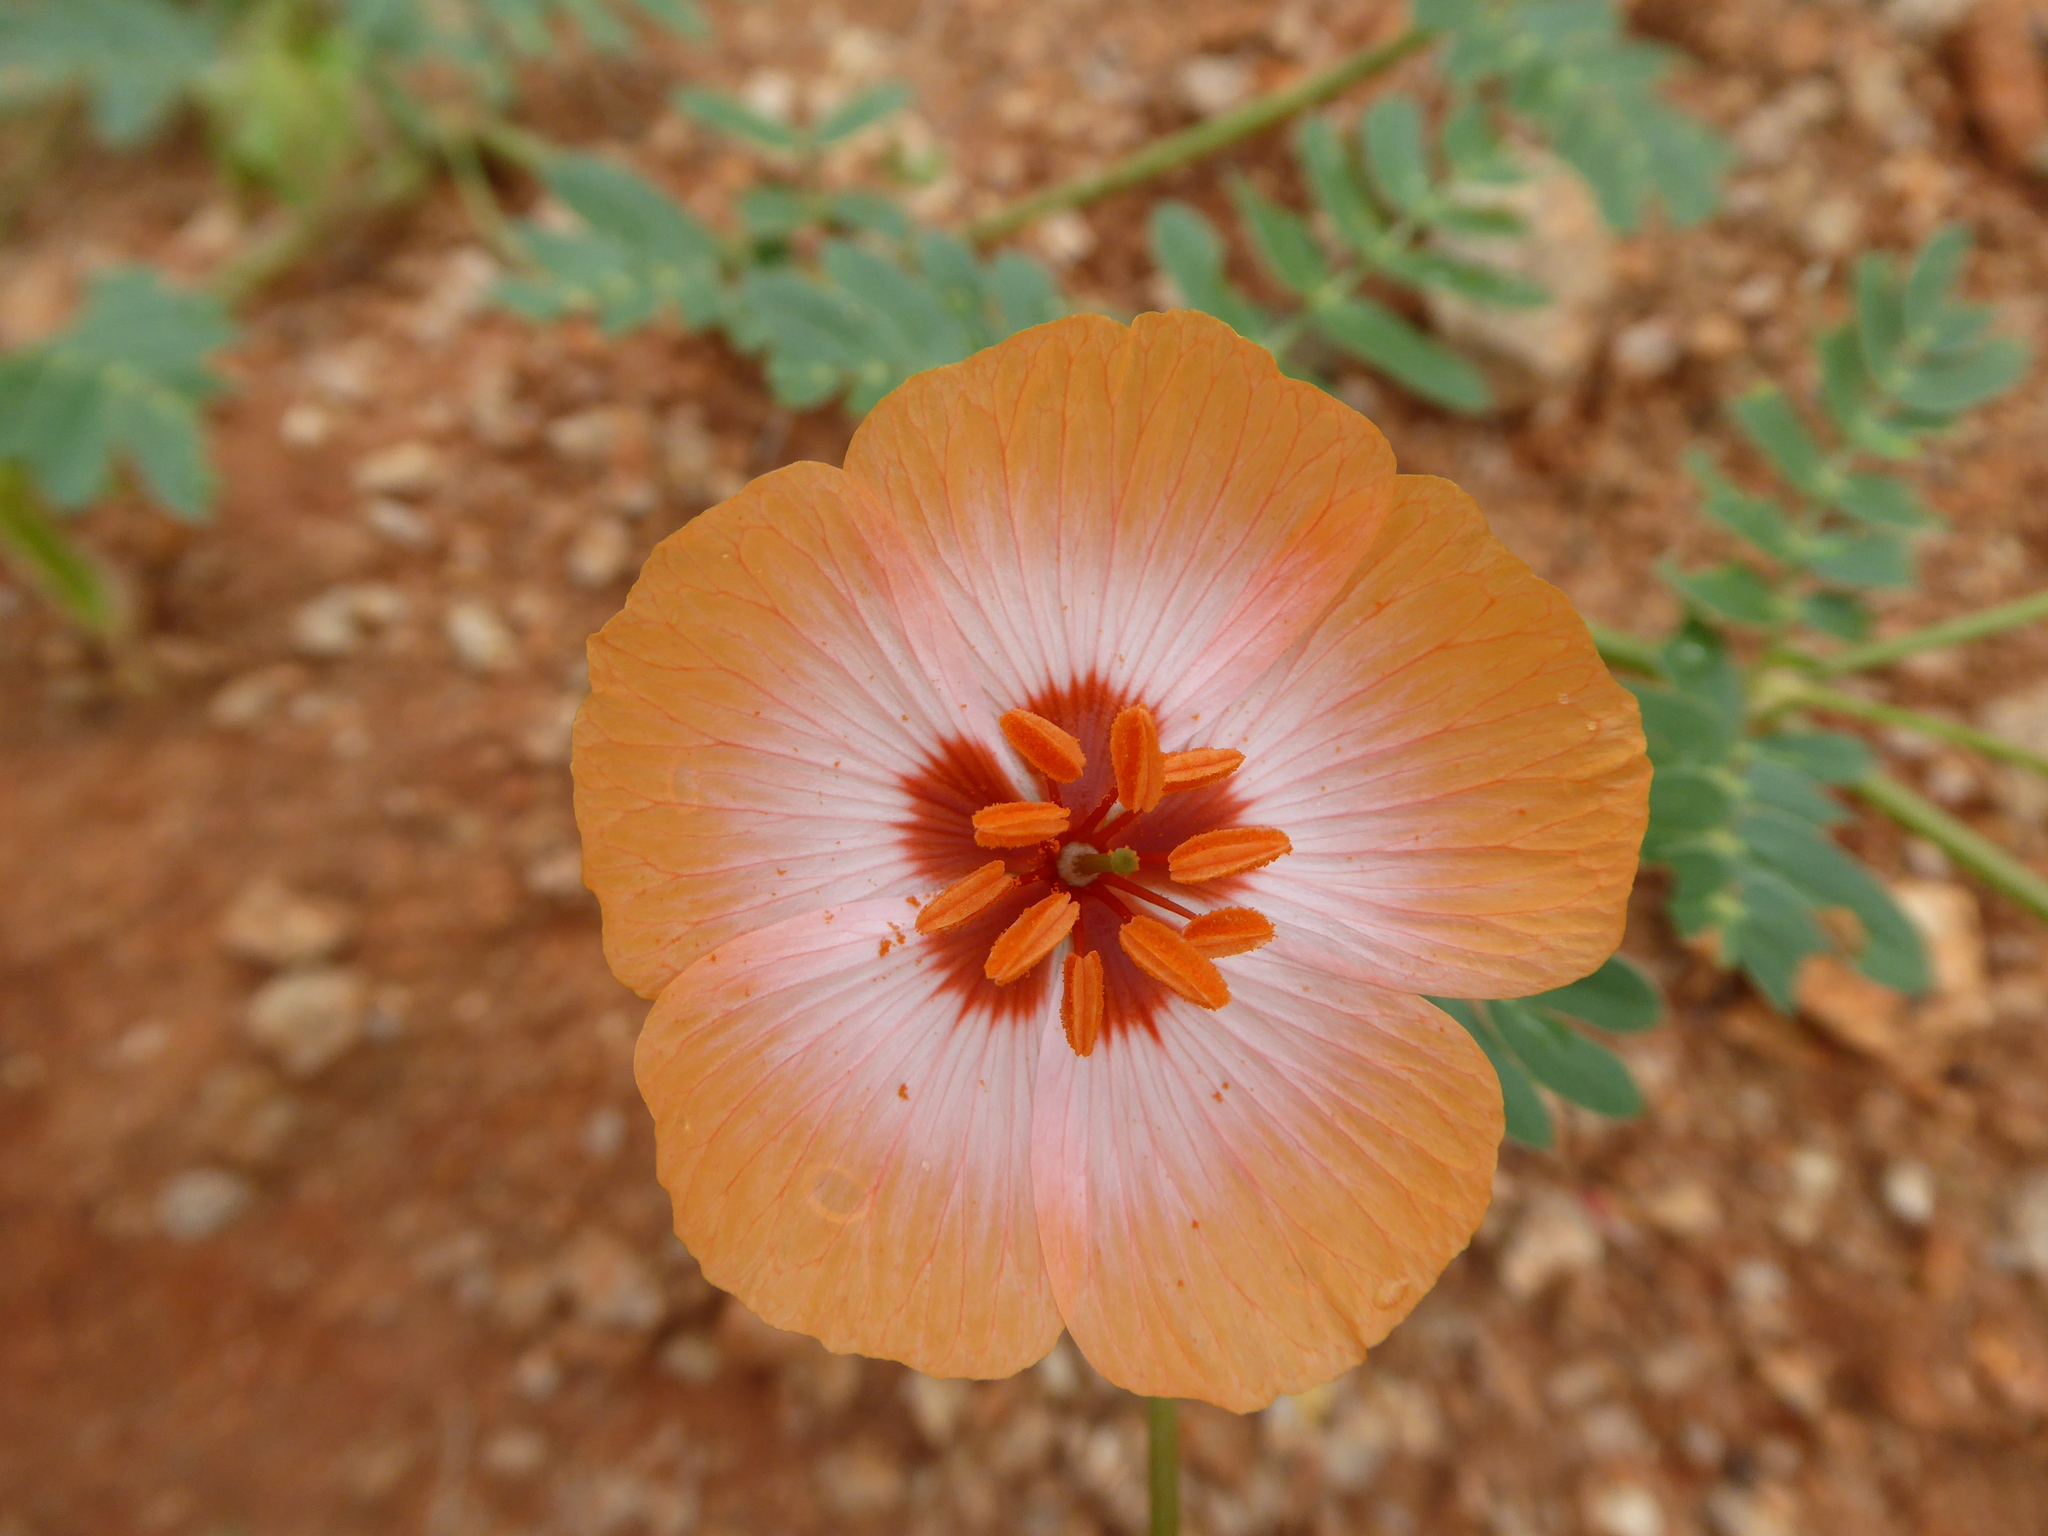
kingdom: Plantae
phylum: Tracheophyta
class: Magnoliopsida
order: Zygophyllales
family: Zygophyllaceae
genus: Kallstroemia
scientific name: Kallstroemia grandiflora
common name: Arizona-poppy
